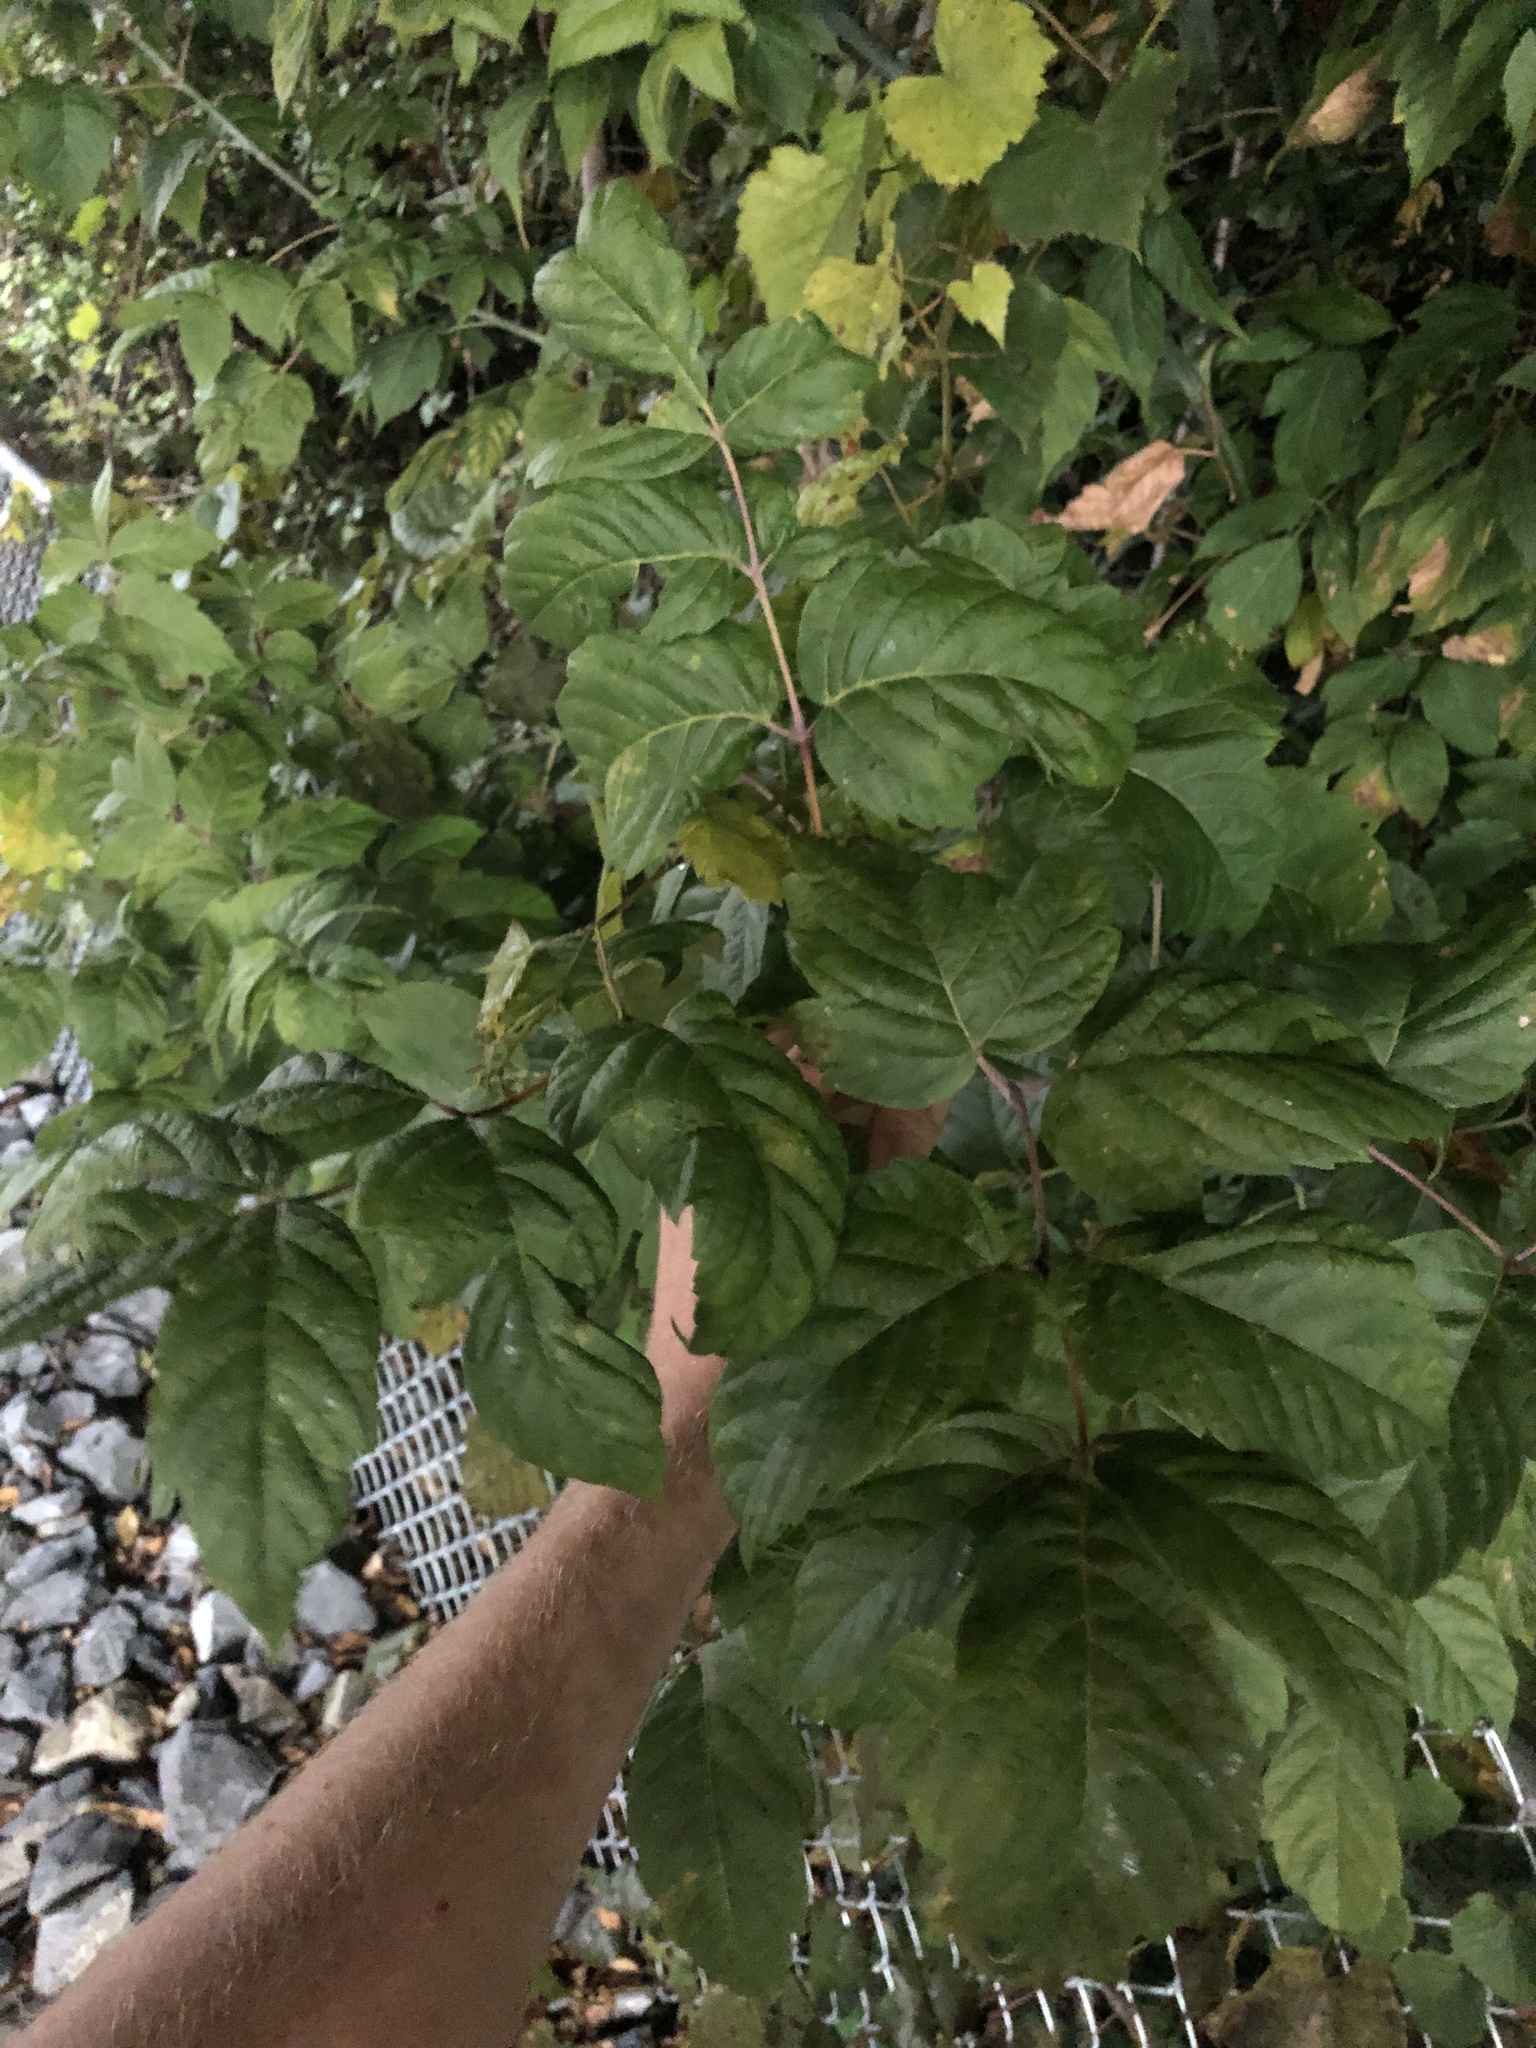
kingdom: Plantae
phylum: Tracheophyta
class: Magnoliopsida
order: Sapindales
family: Sapindaceae
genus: Acer
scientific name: Acer negundo
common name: Ashleaf maple
